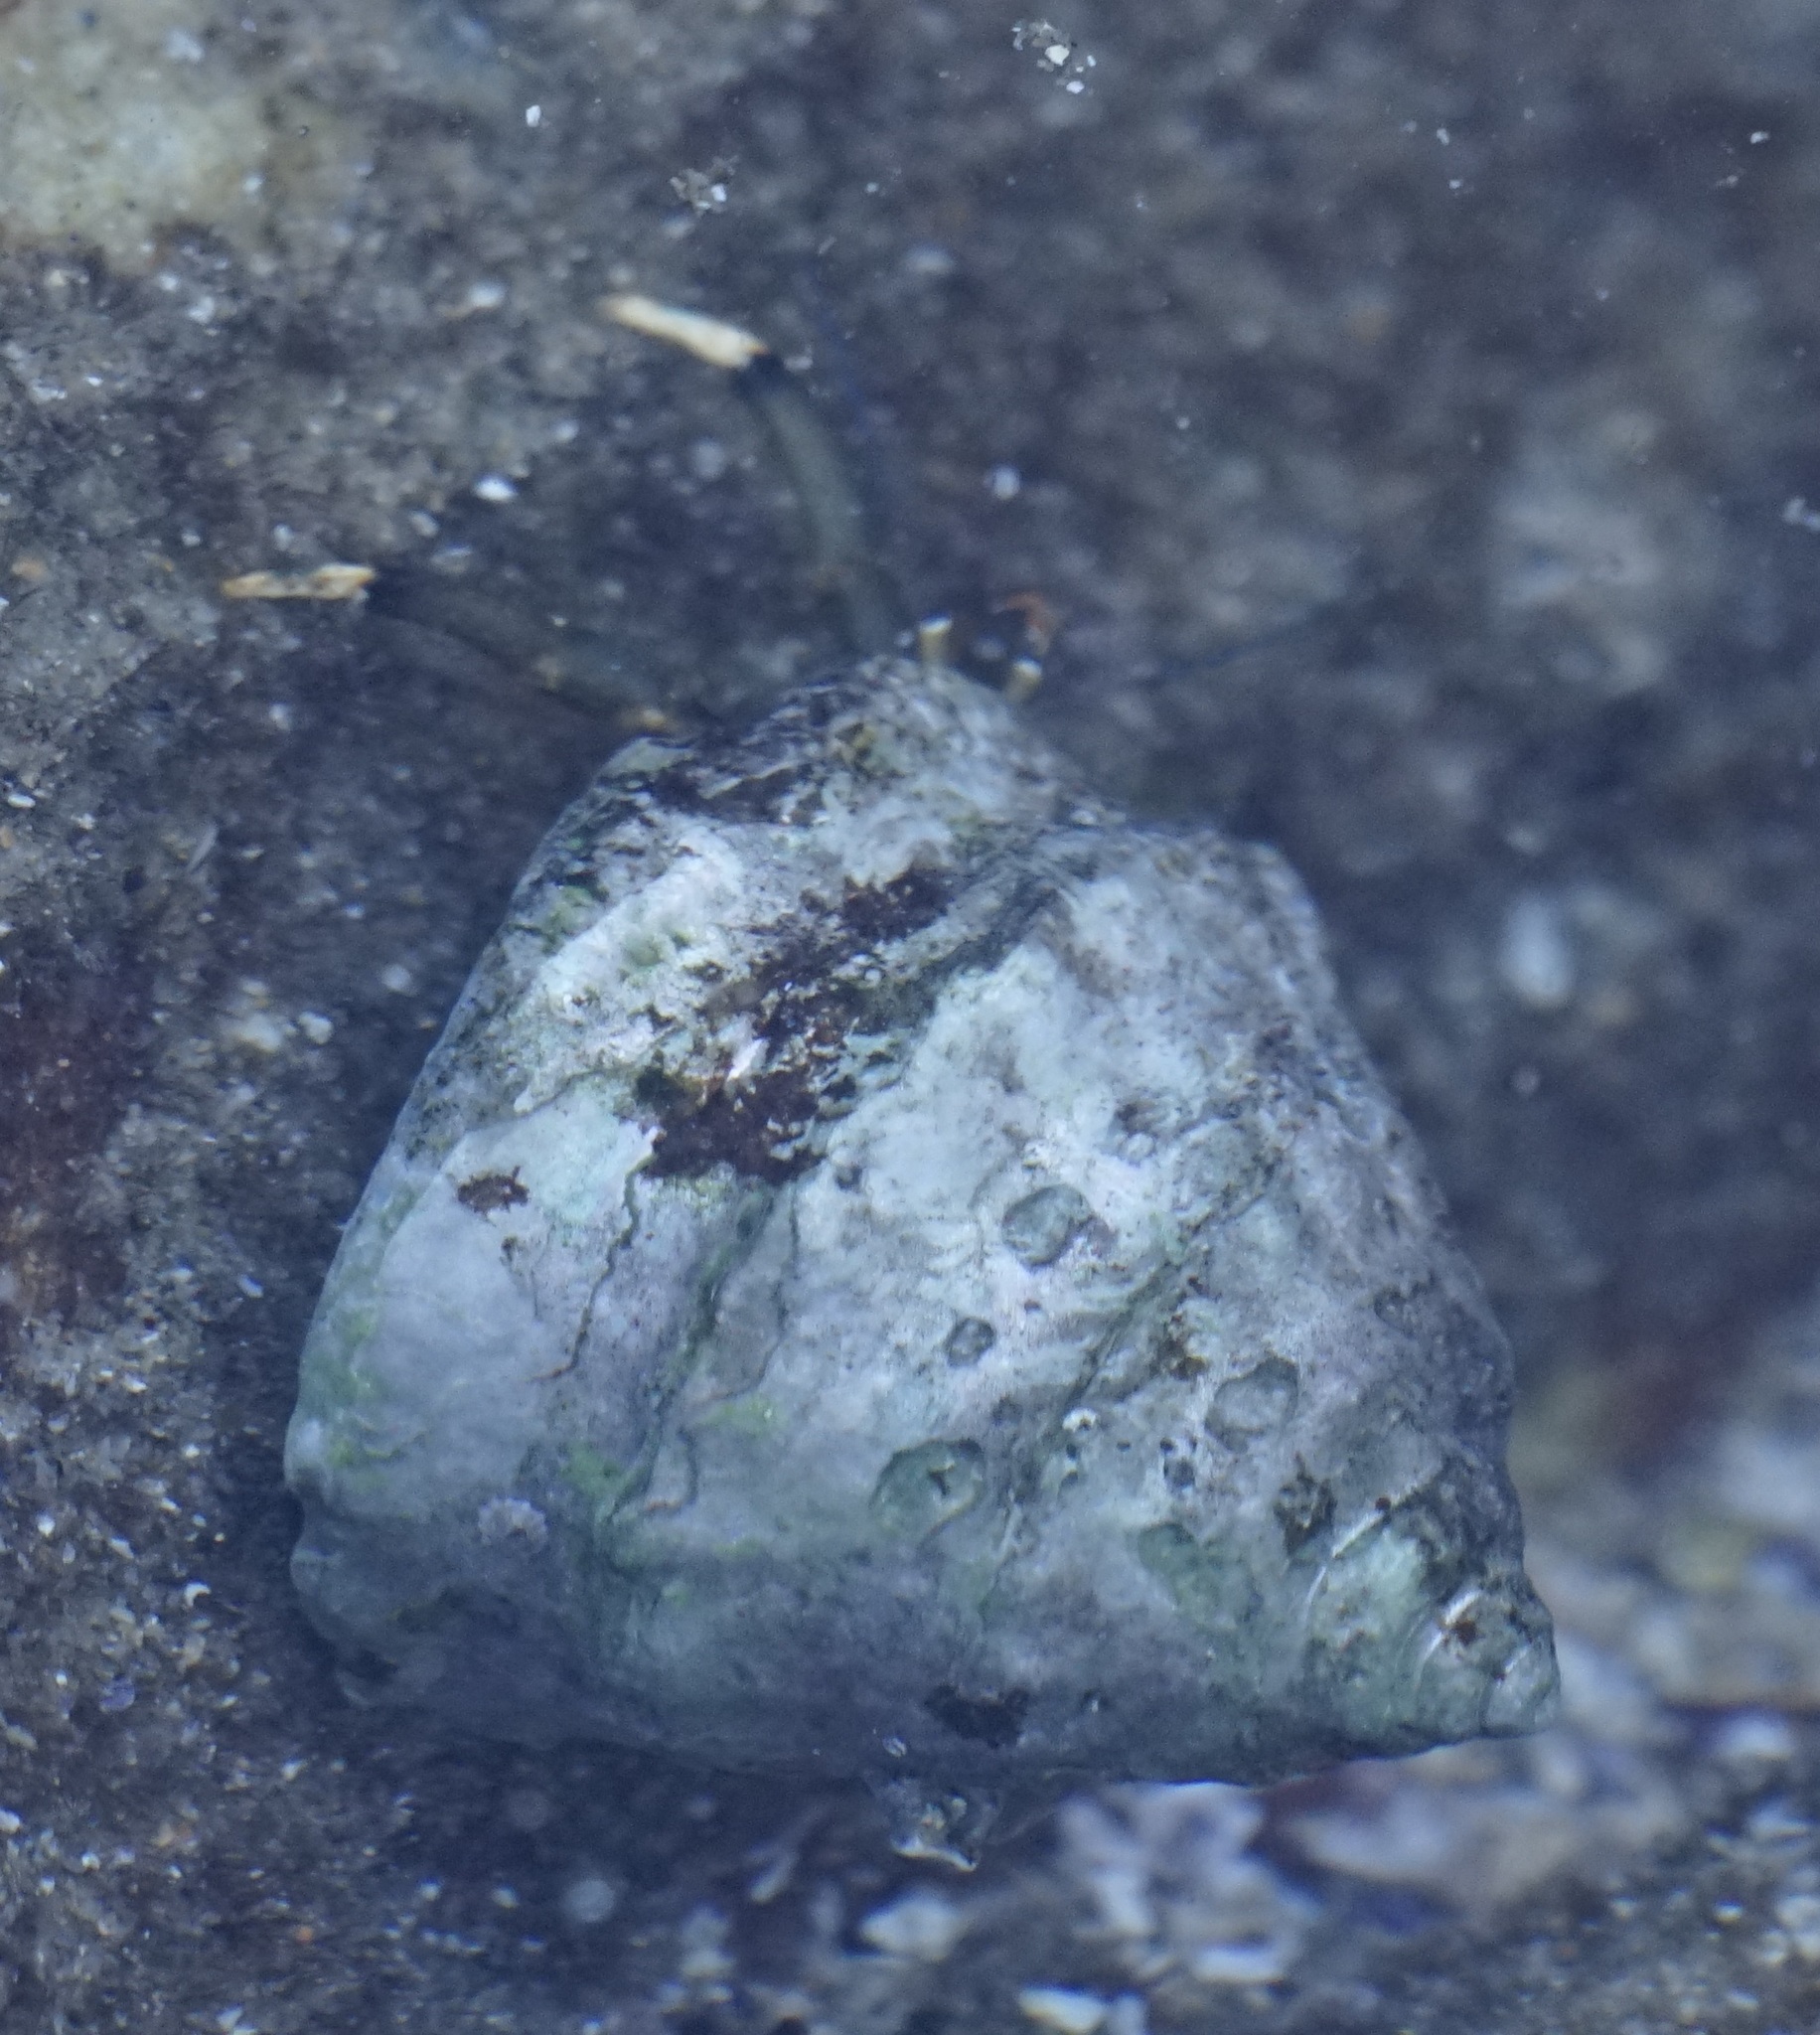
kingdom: Animalia
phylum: Arthropoda
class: Malacostraca
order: Decapoda
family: Diogenidae
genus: Clibanarius
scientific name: Clibanarius virescens
